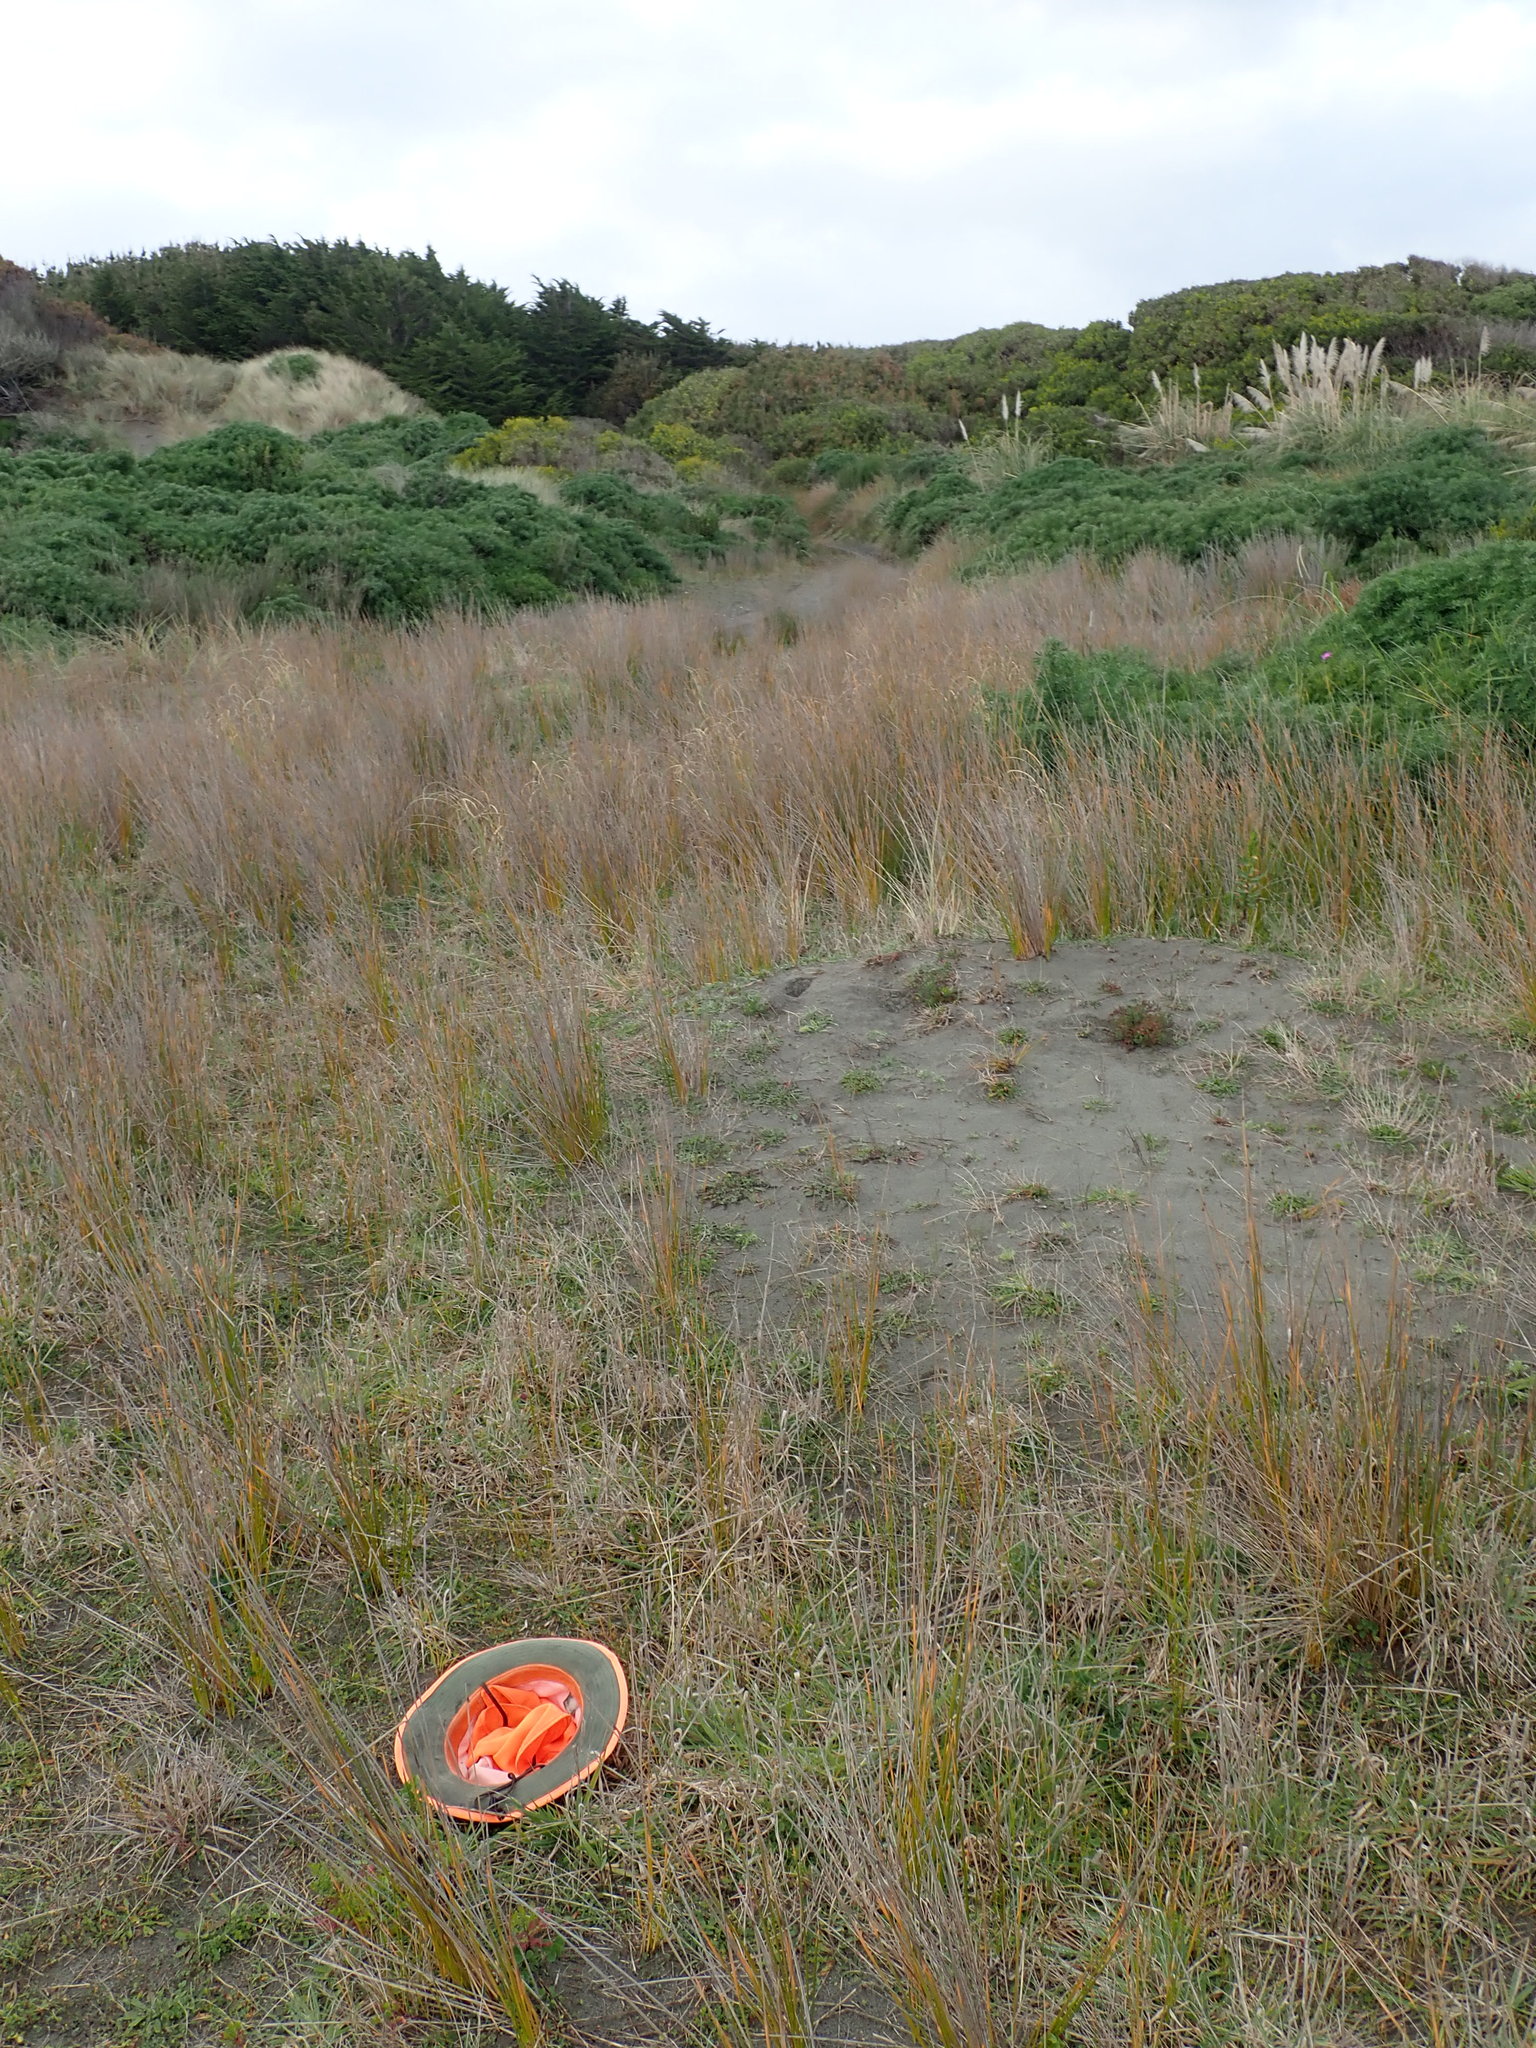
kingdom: Plantae
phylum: Tracheophyta
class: Magnoliopsida
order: Asterales
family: Goodeniaceae
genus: Goodenia
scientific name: Goodenia heenanii
